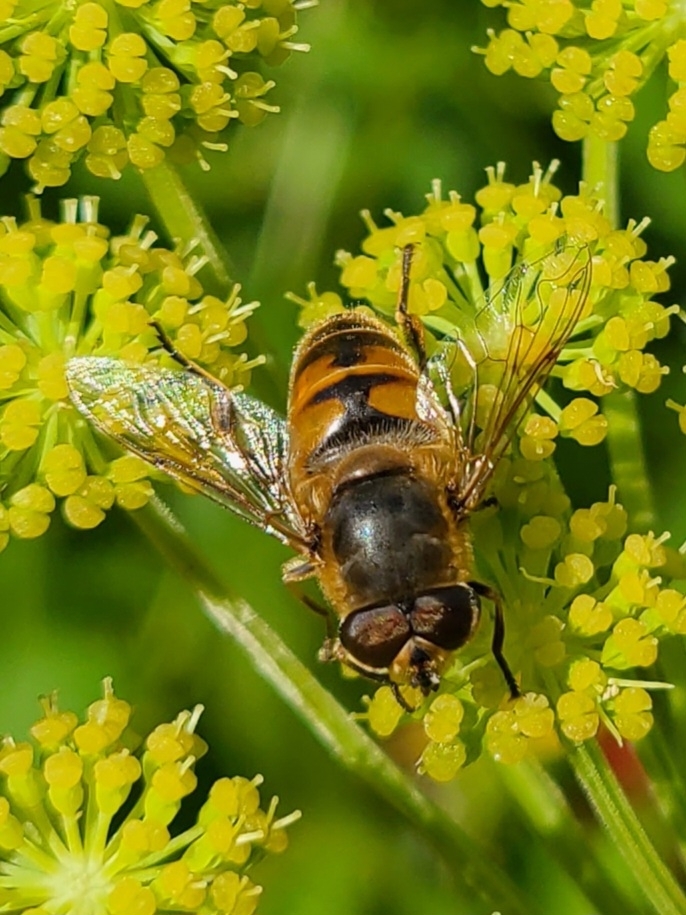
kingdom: Animalia
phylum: Arthropoda
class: Insecta
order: Diptera
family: Syrphidae
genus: Eristalis
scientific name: Eristalis tenax
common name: Drone fly
